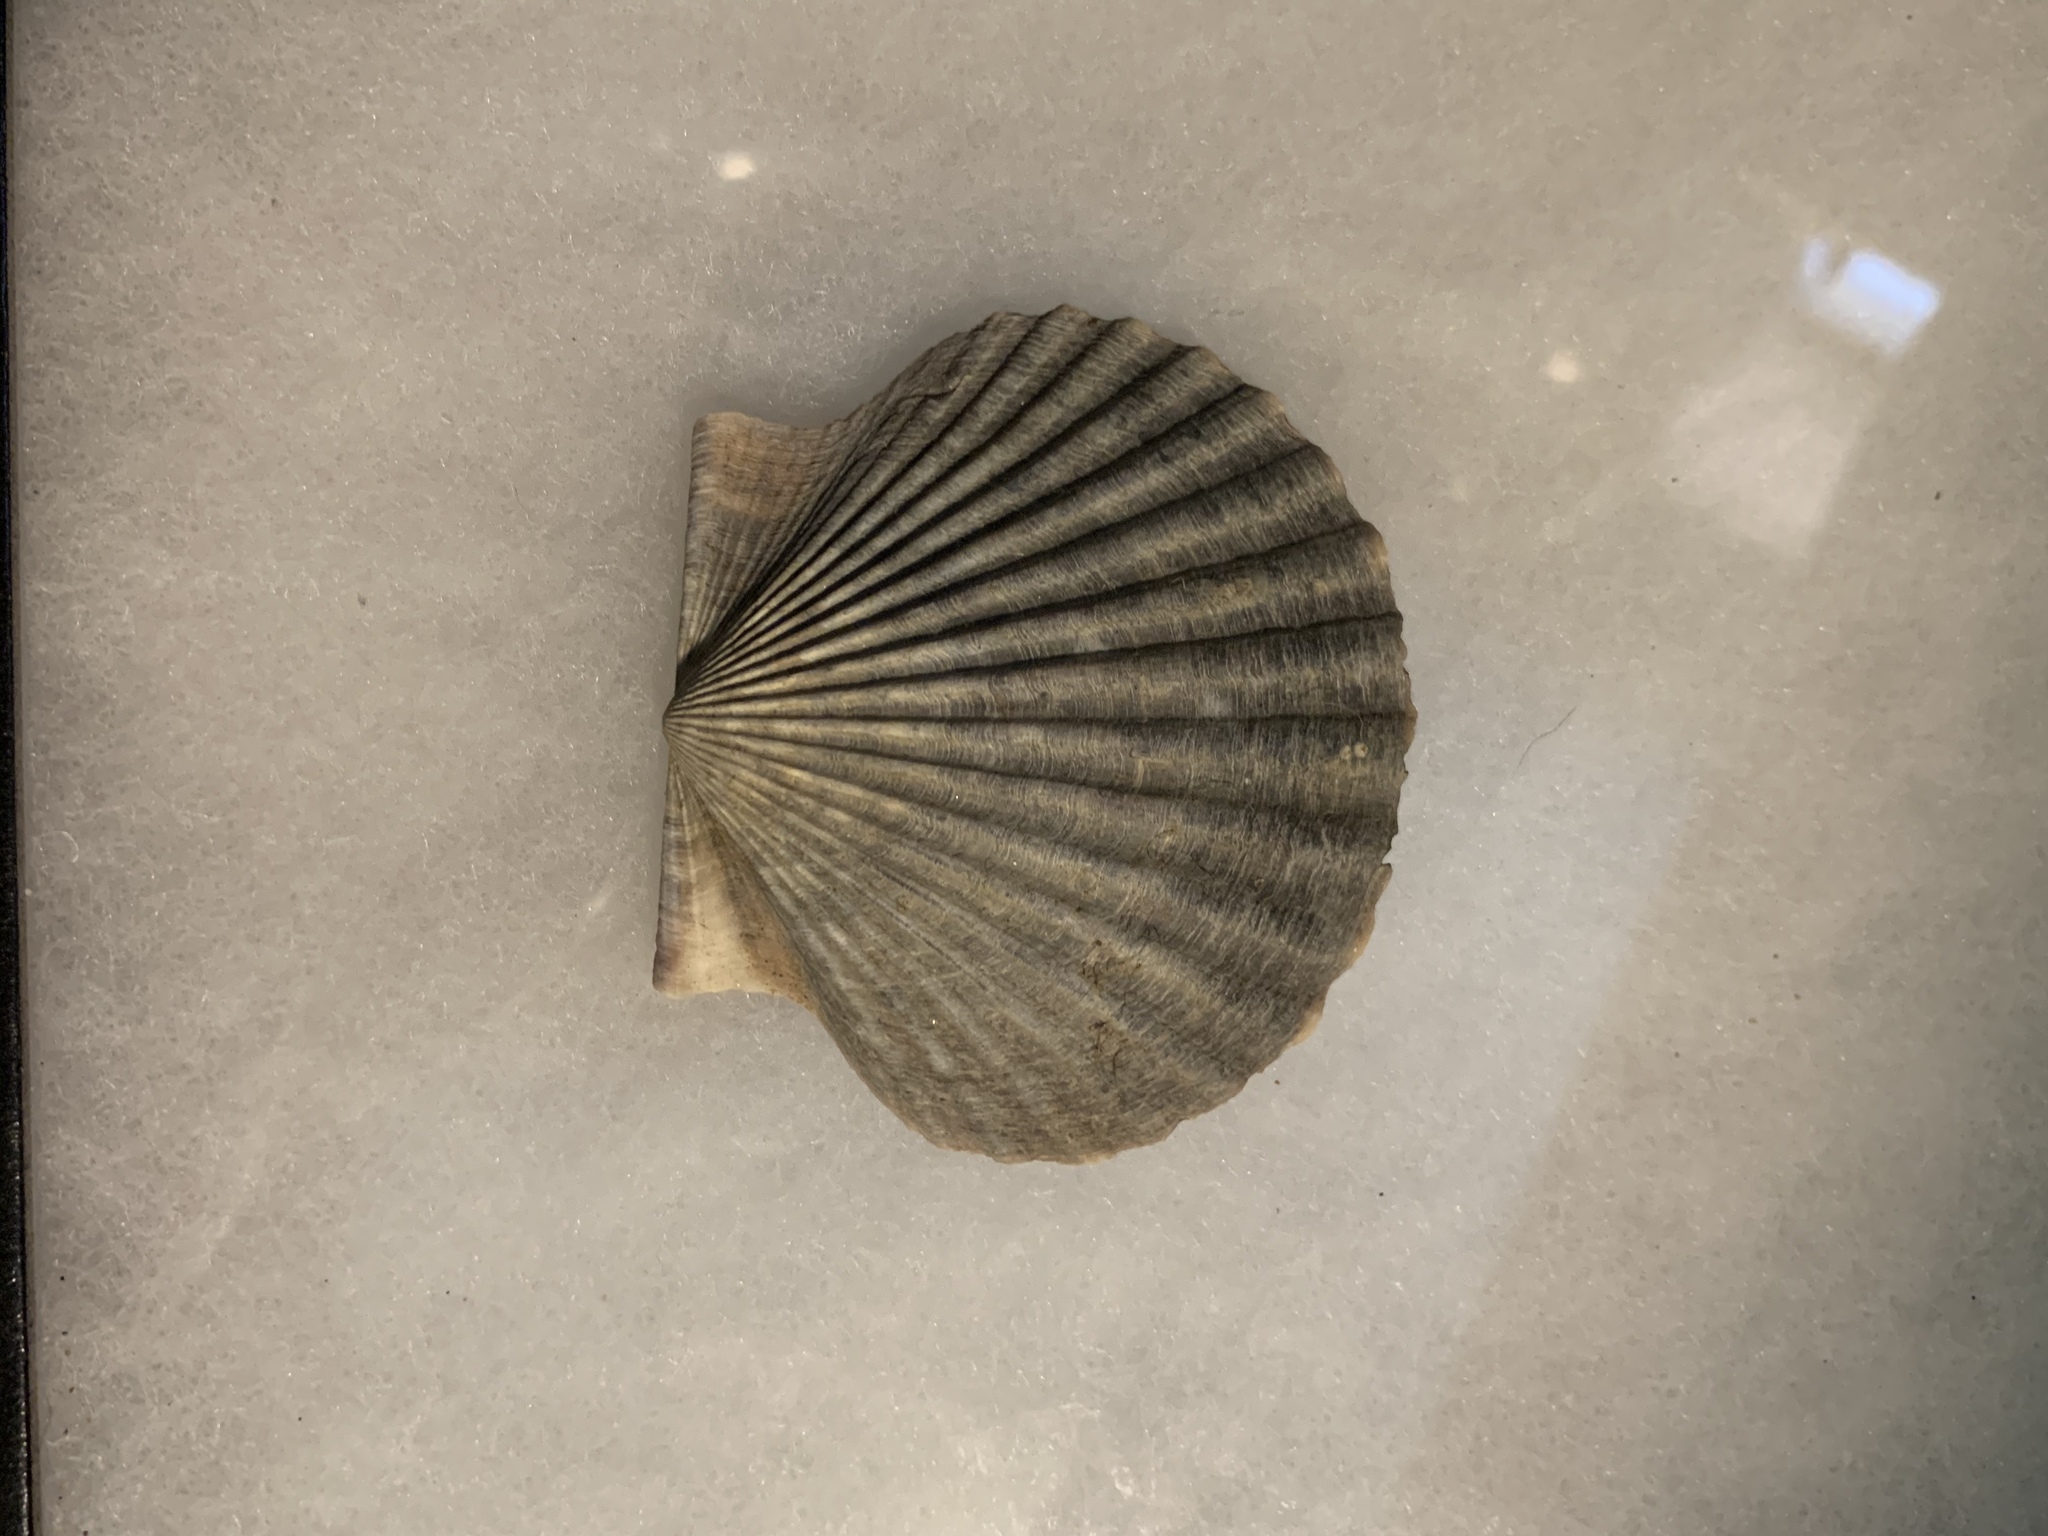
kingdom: Animalia
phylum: Mollusca
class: Bivalvia
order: Pectinida
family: Pectinidae
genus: Argopecten
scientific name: Argopecten irradians
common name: Atlantic bay scallop
